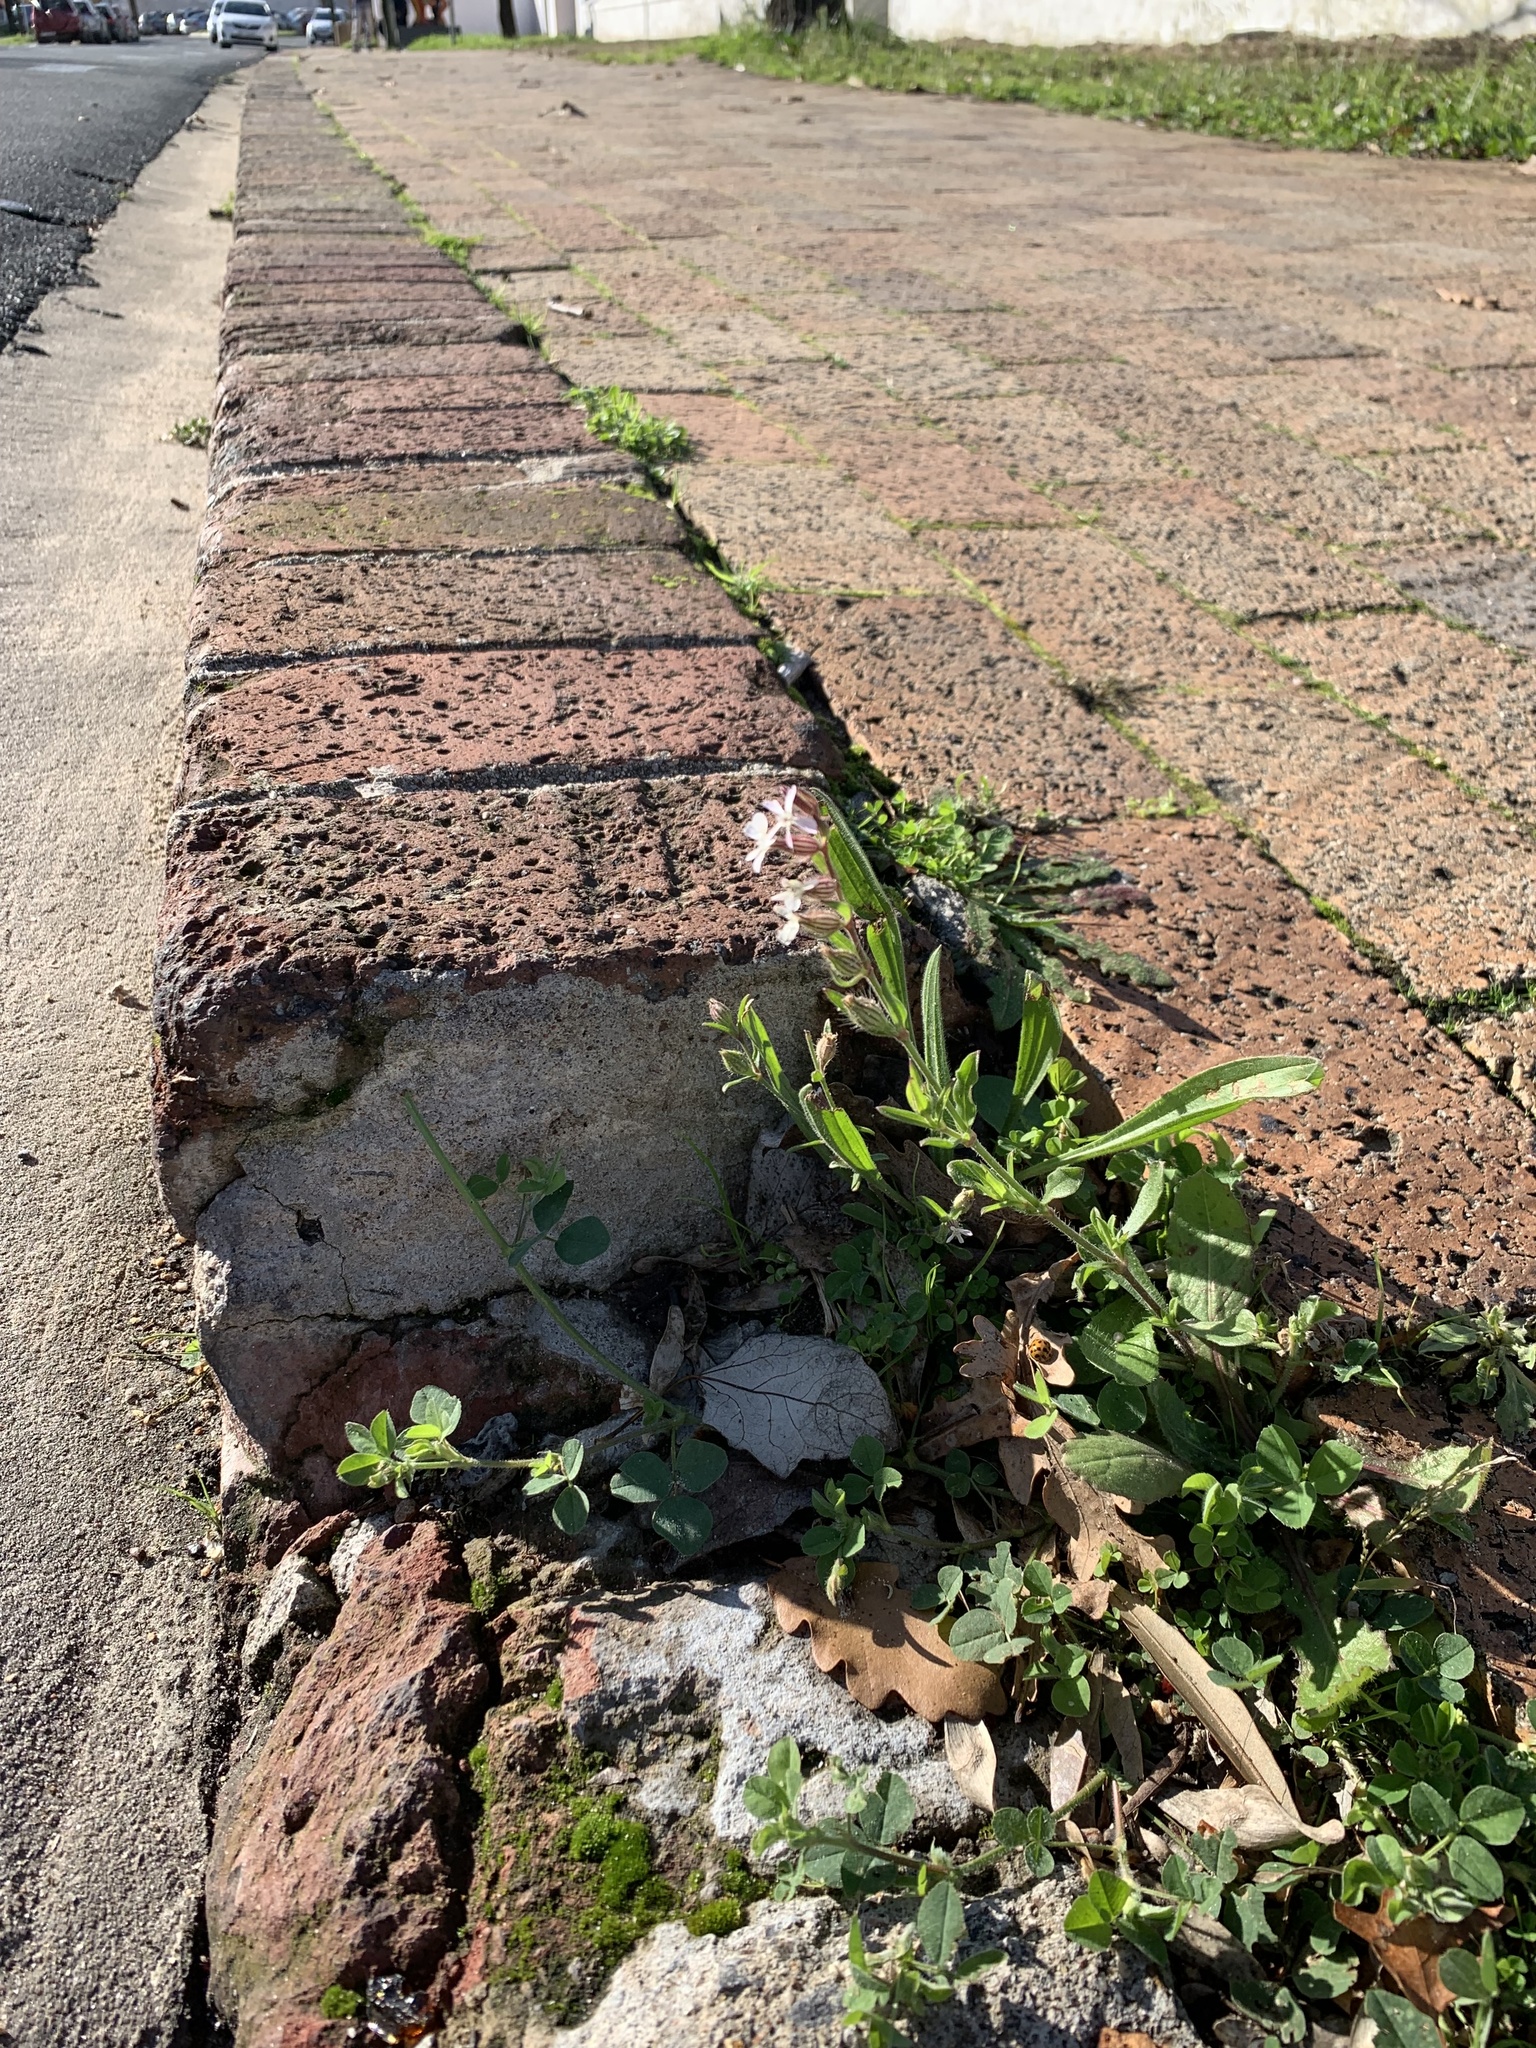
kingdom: Plantae
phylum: Tracheophyta
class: Magnoliopsida
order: Caryophyllales
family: Caryophyllaceae
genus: Silene
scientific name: Silene gallica
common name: Small-flowered catchfly
